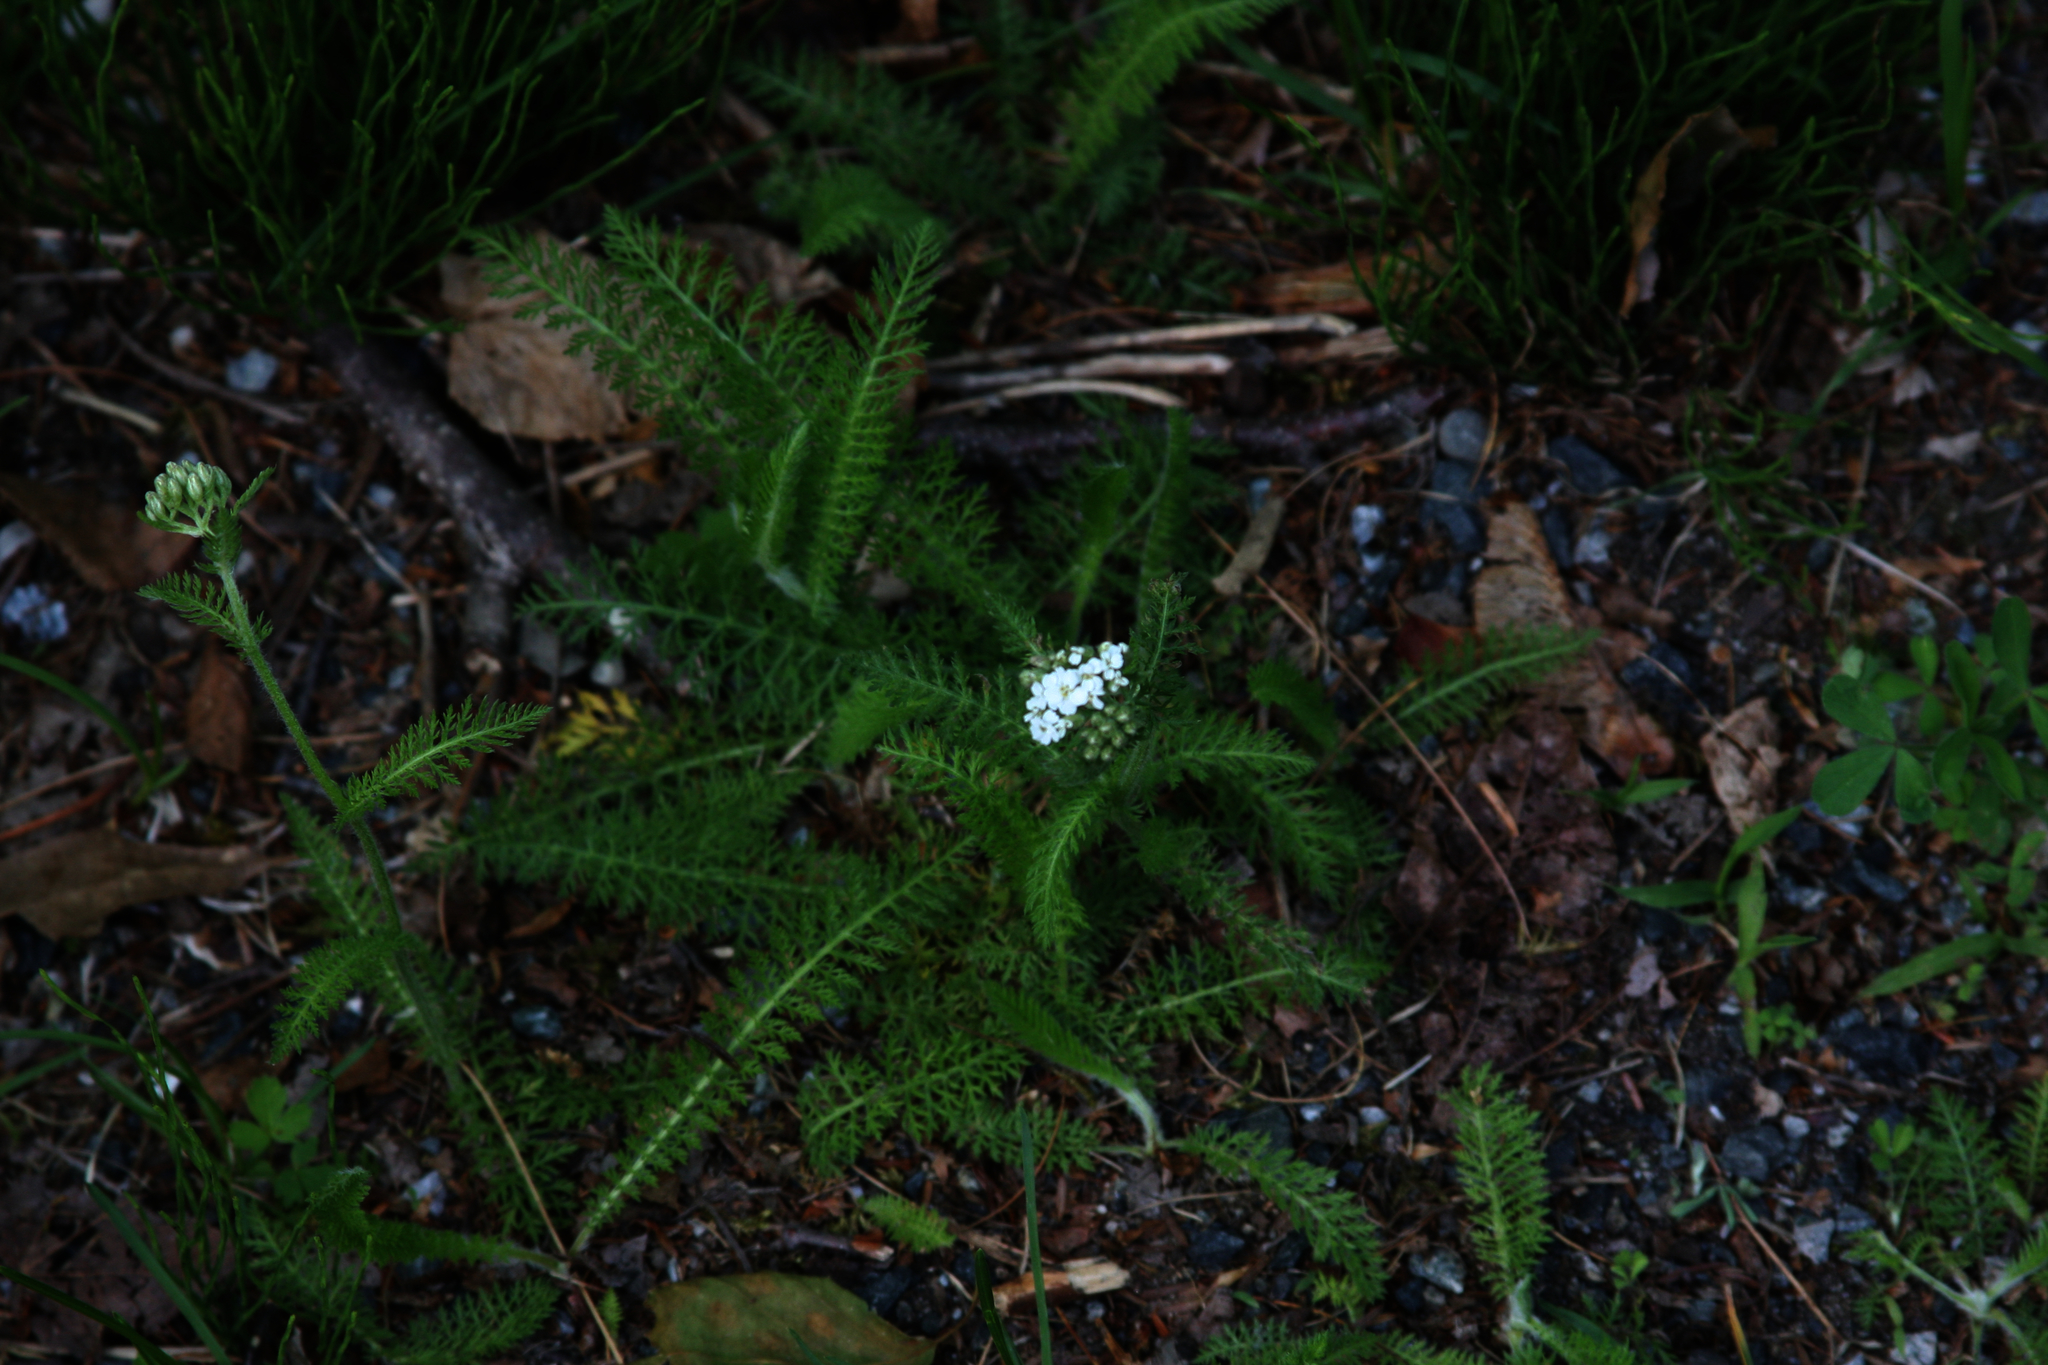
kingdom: Plantae
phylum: Tracheophyta
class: Magnoliopsida
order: Asterales
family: Asteraceae
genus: Achillea
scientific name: Achillea millefolium
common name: Yarrow
